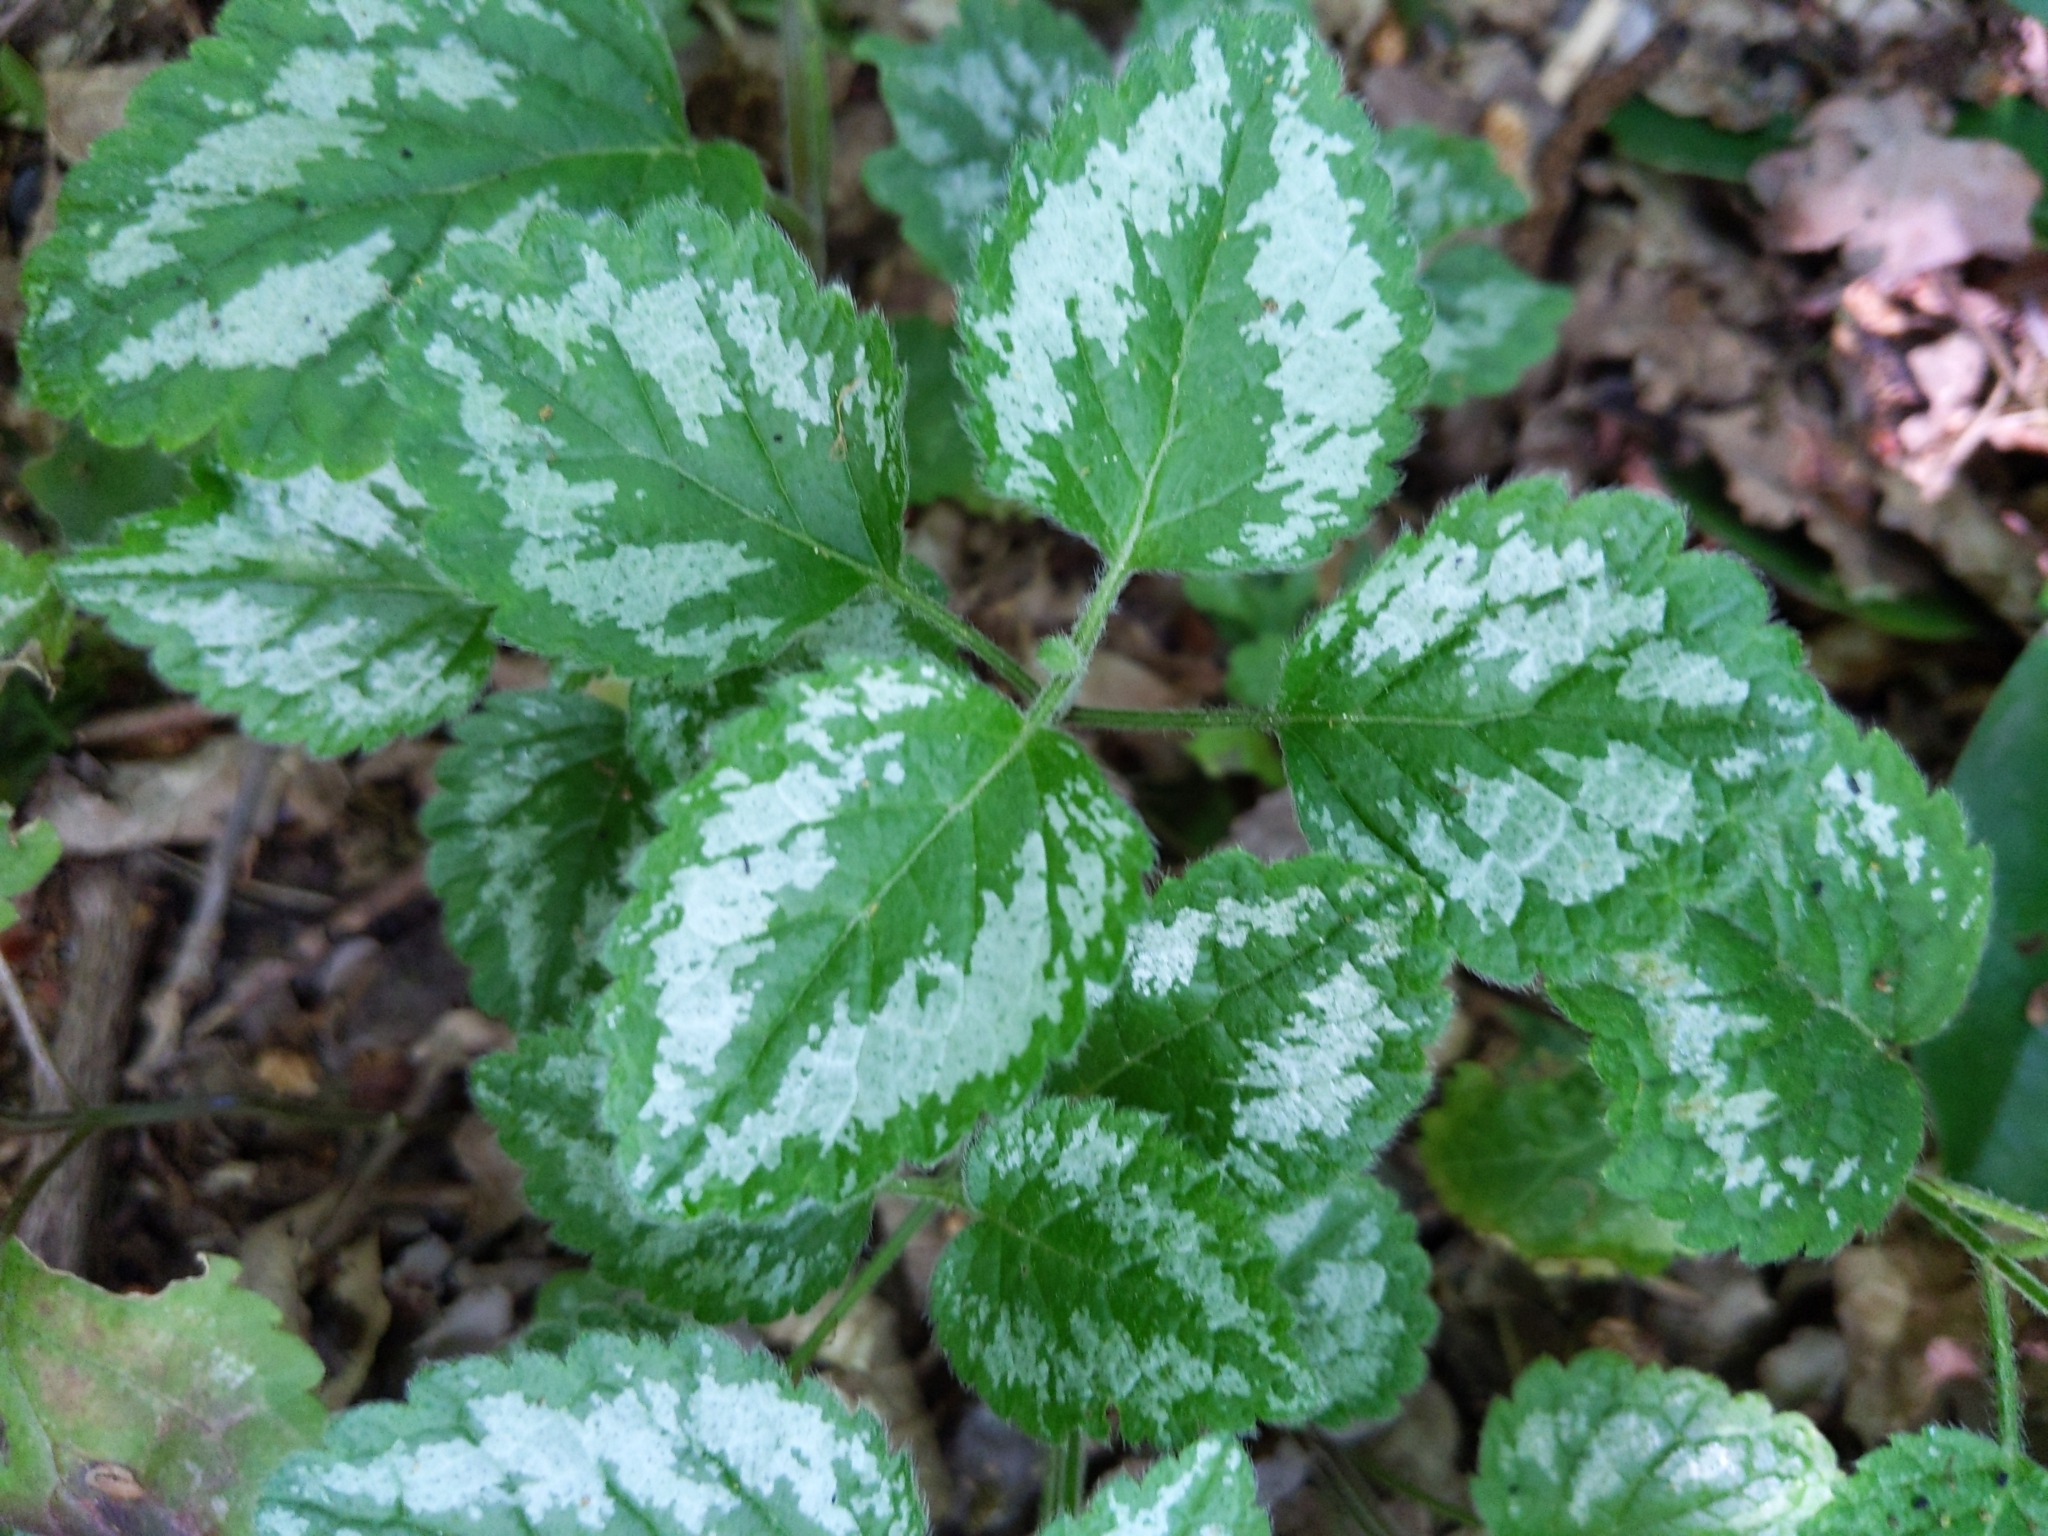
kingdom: Plantae
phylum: Tracheophyta
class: Magnoliopsida
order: Lamiales
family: Lamiaceae
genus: Lamium
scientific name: Lamium galeobdolon
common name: Yellow archangel
